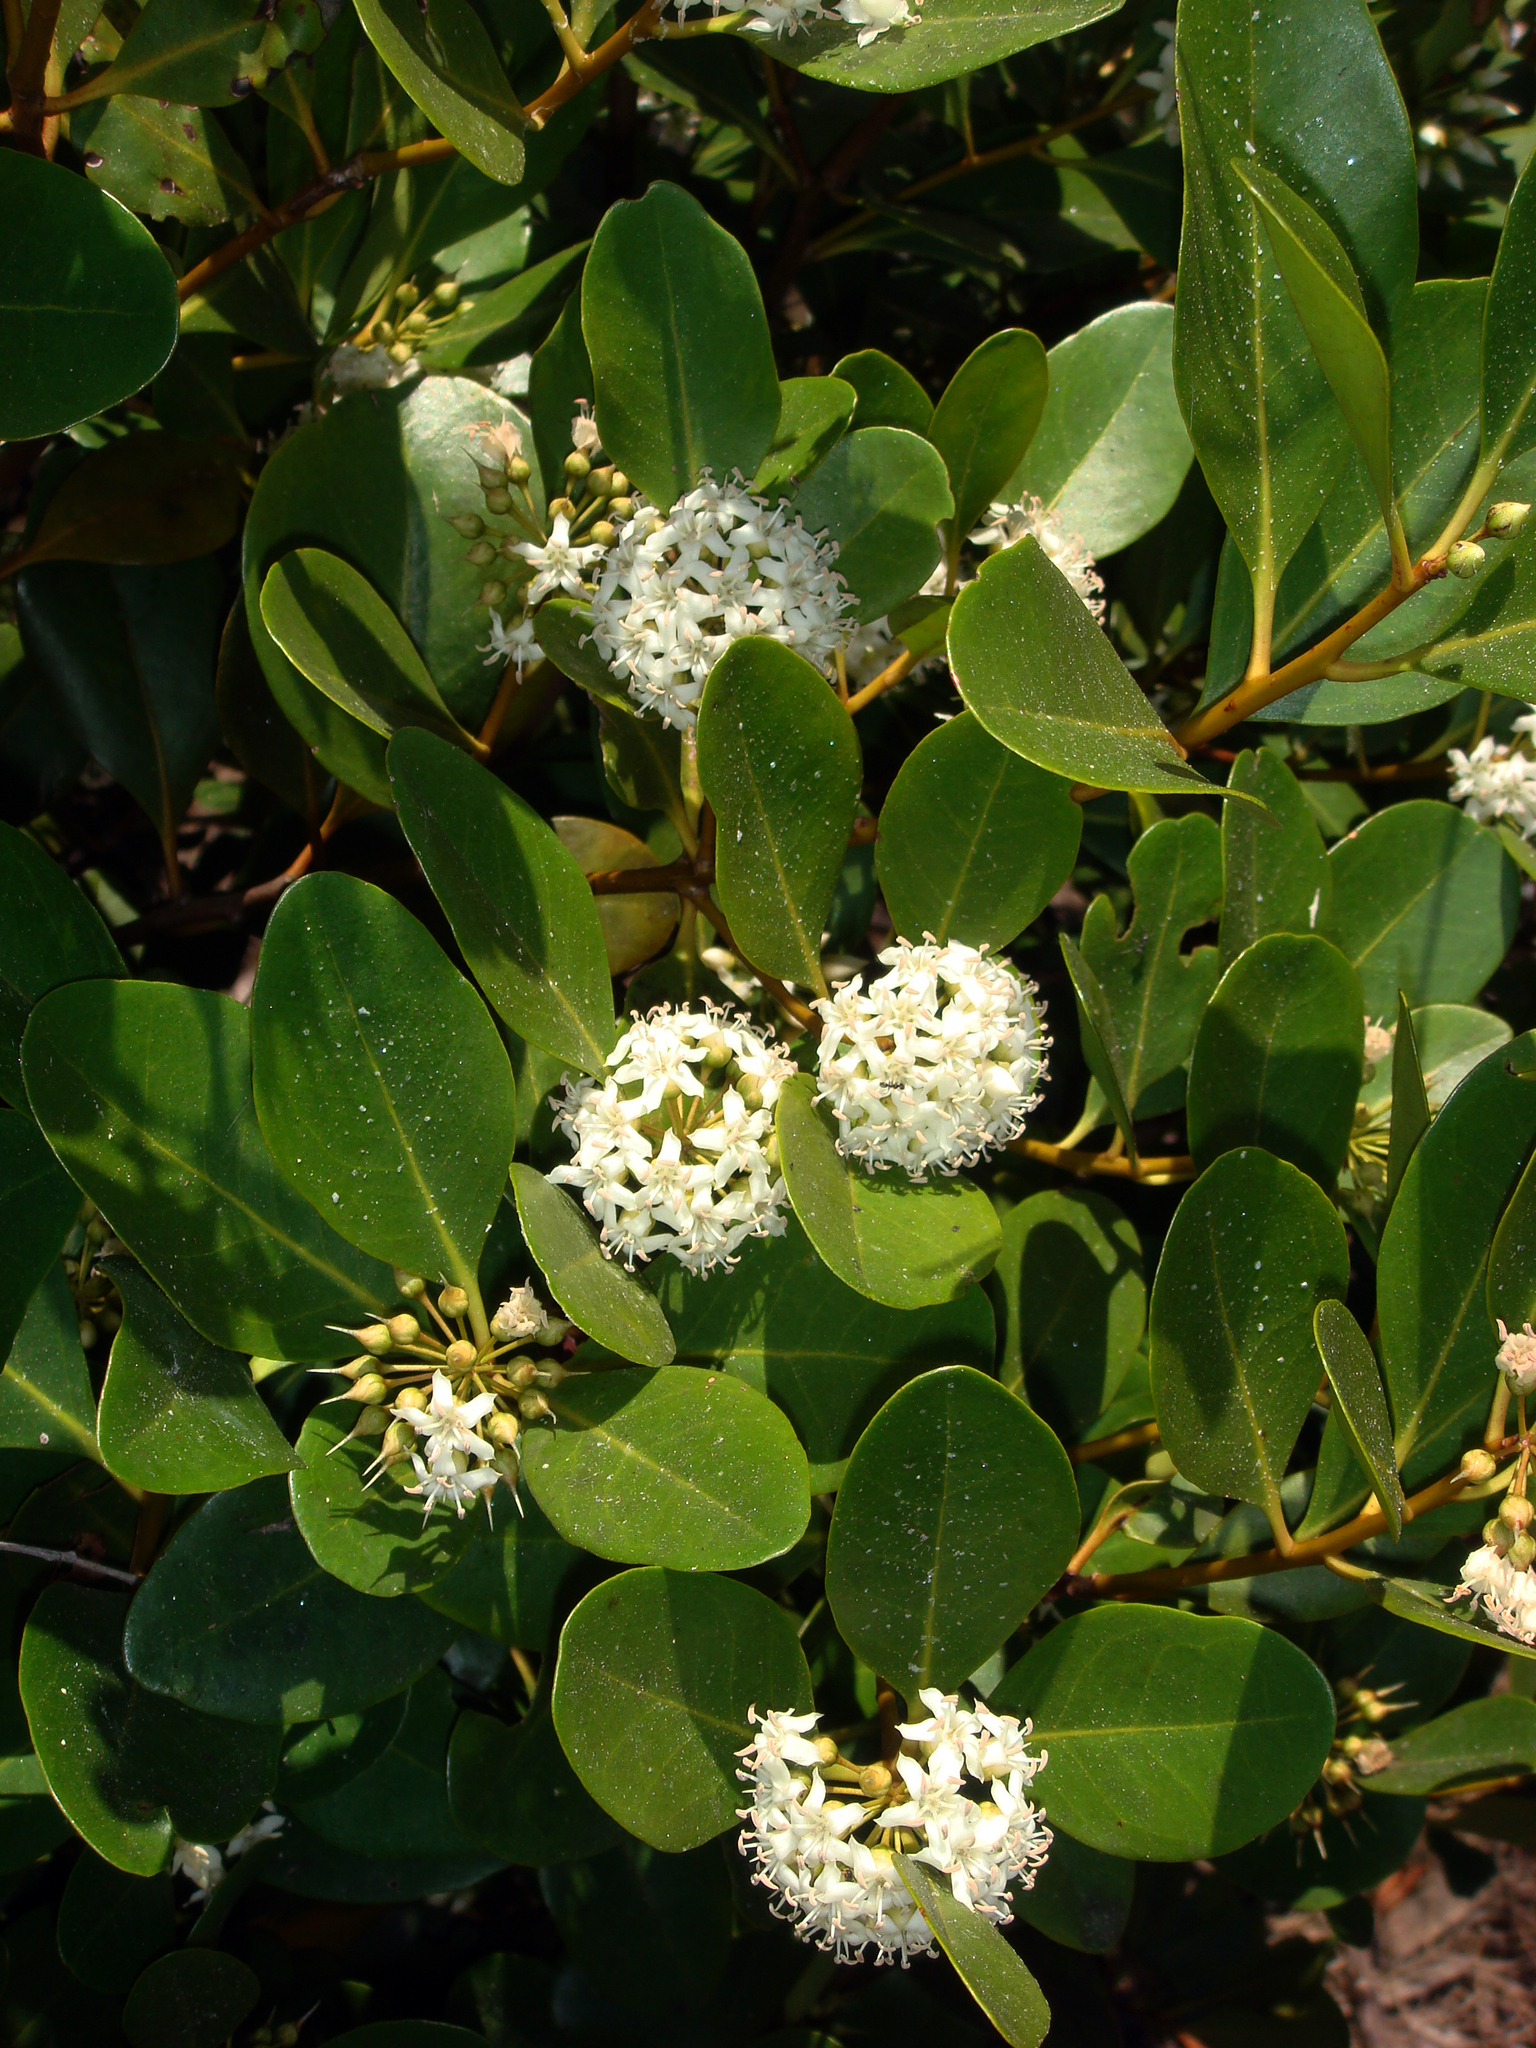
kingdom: Plantae
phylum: Tracheophyta
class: Magnoliopsida
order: Ericales
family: Primulaceae
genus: Aegiceras
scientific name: Aegiceras corniculatum
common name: River mangrove
